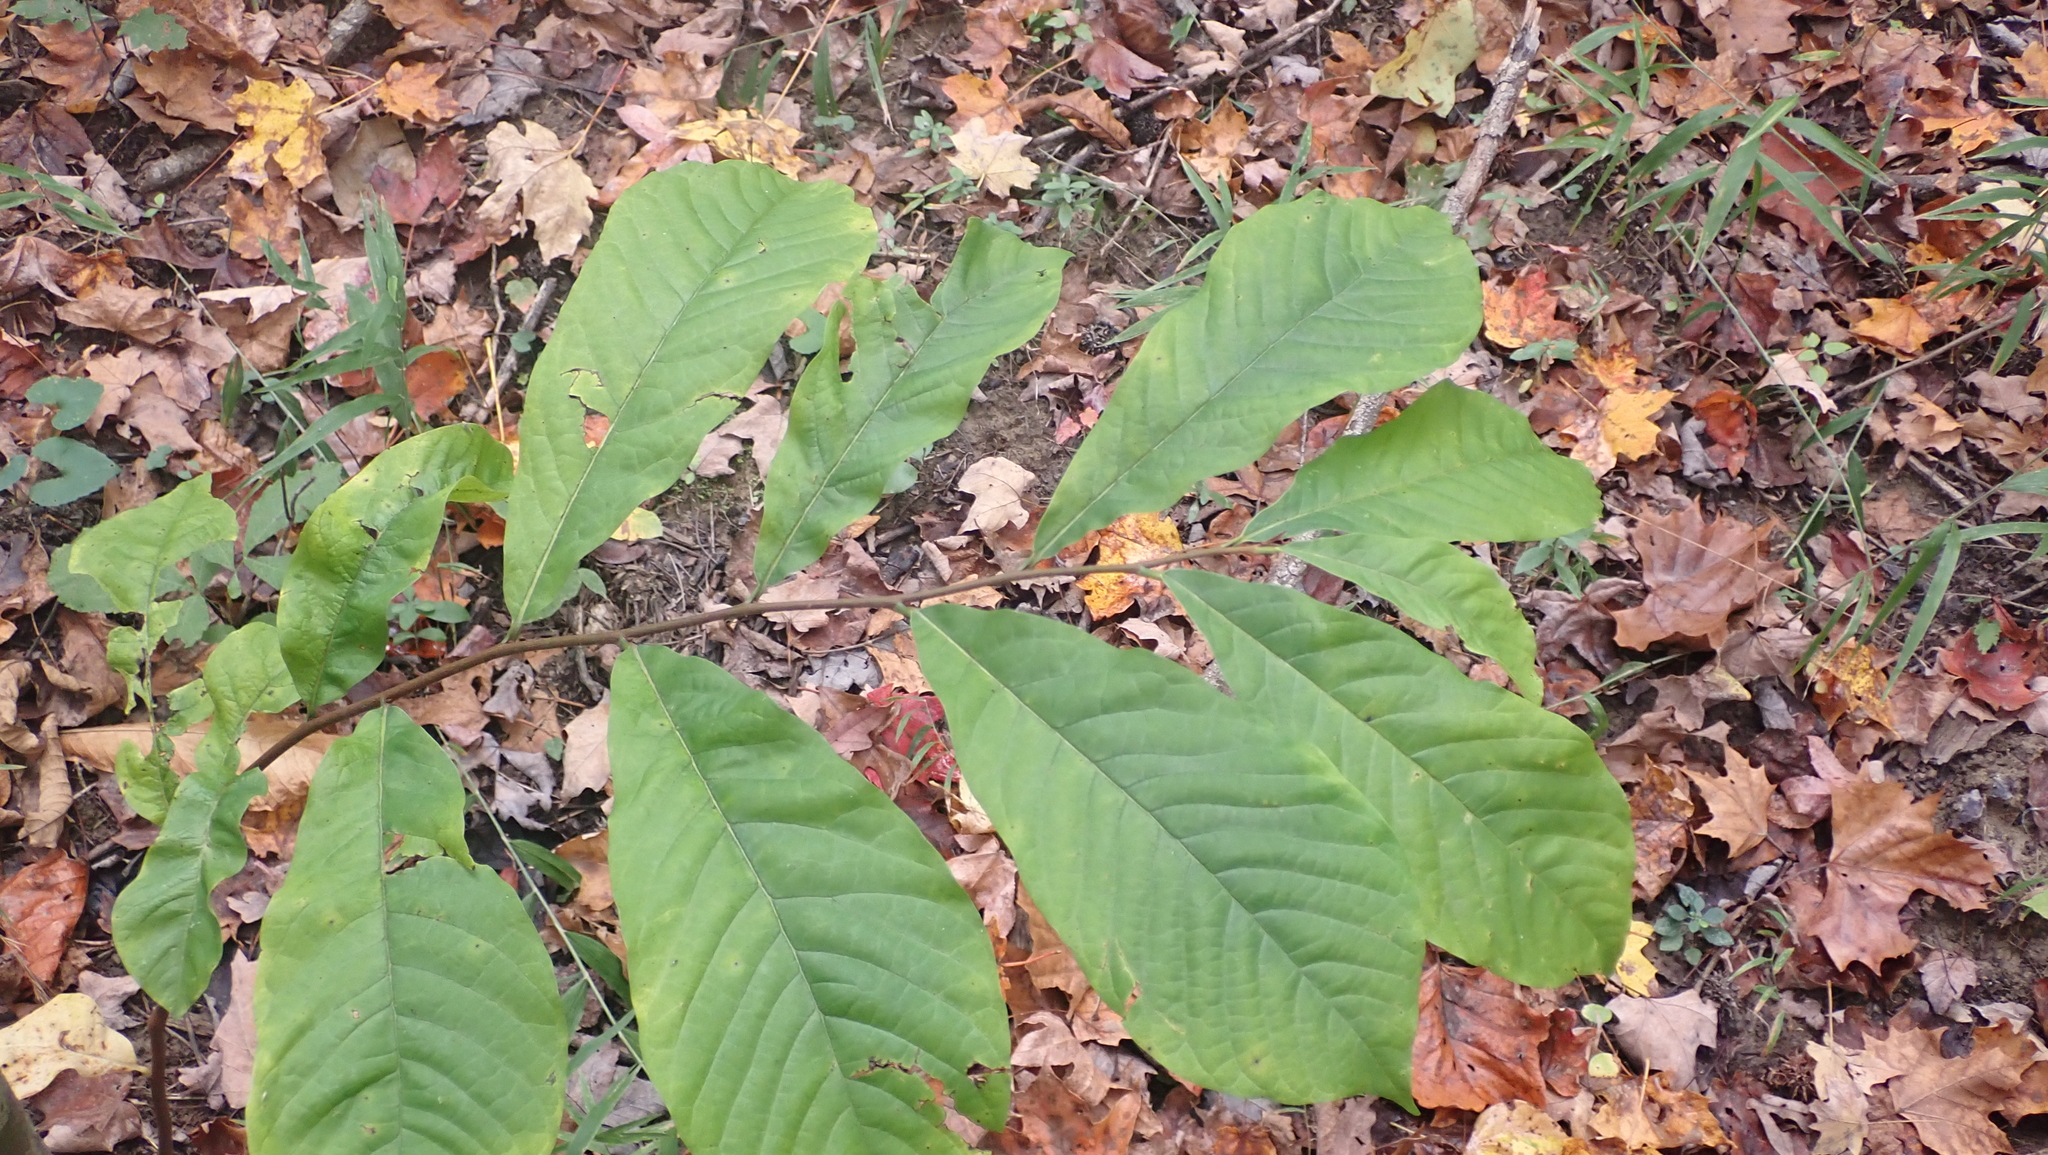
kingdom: Plantae
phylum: Tracheophyta
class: Magnoliopsida
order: Magnoliales
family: Annonaceae
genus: Asimina
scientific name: Asimina triloba
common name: Dog-banana
